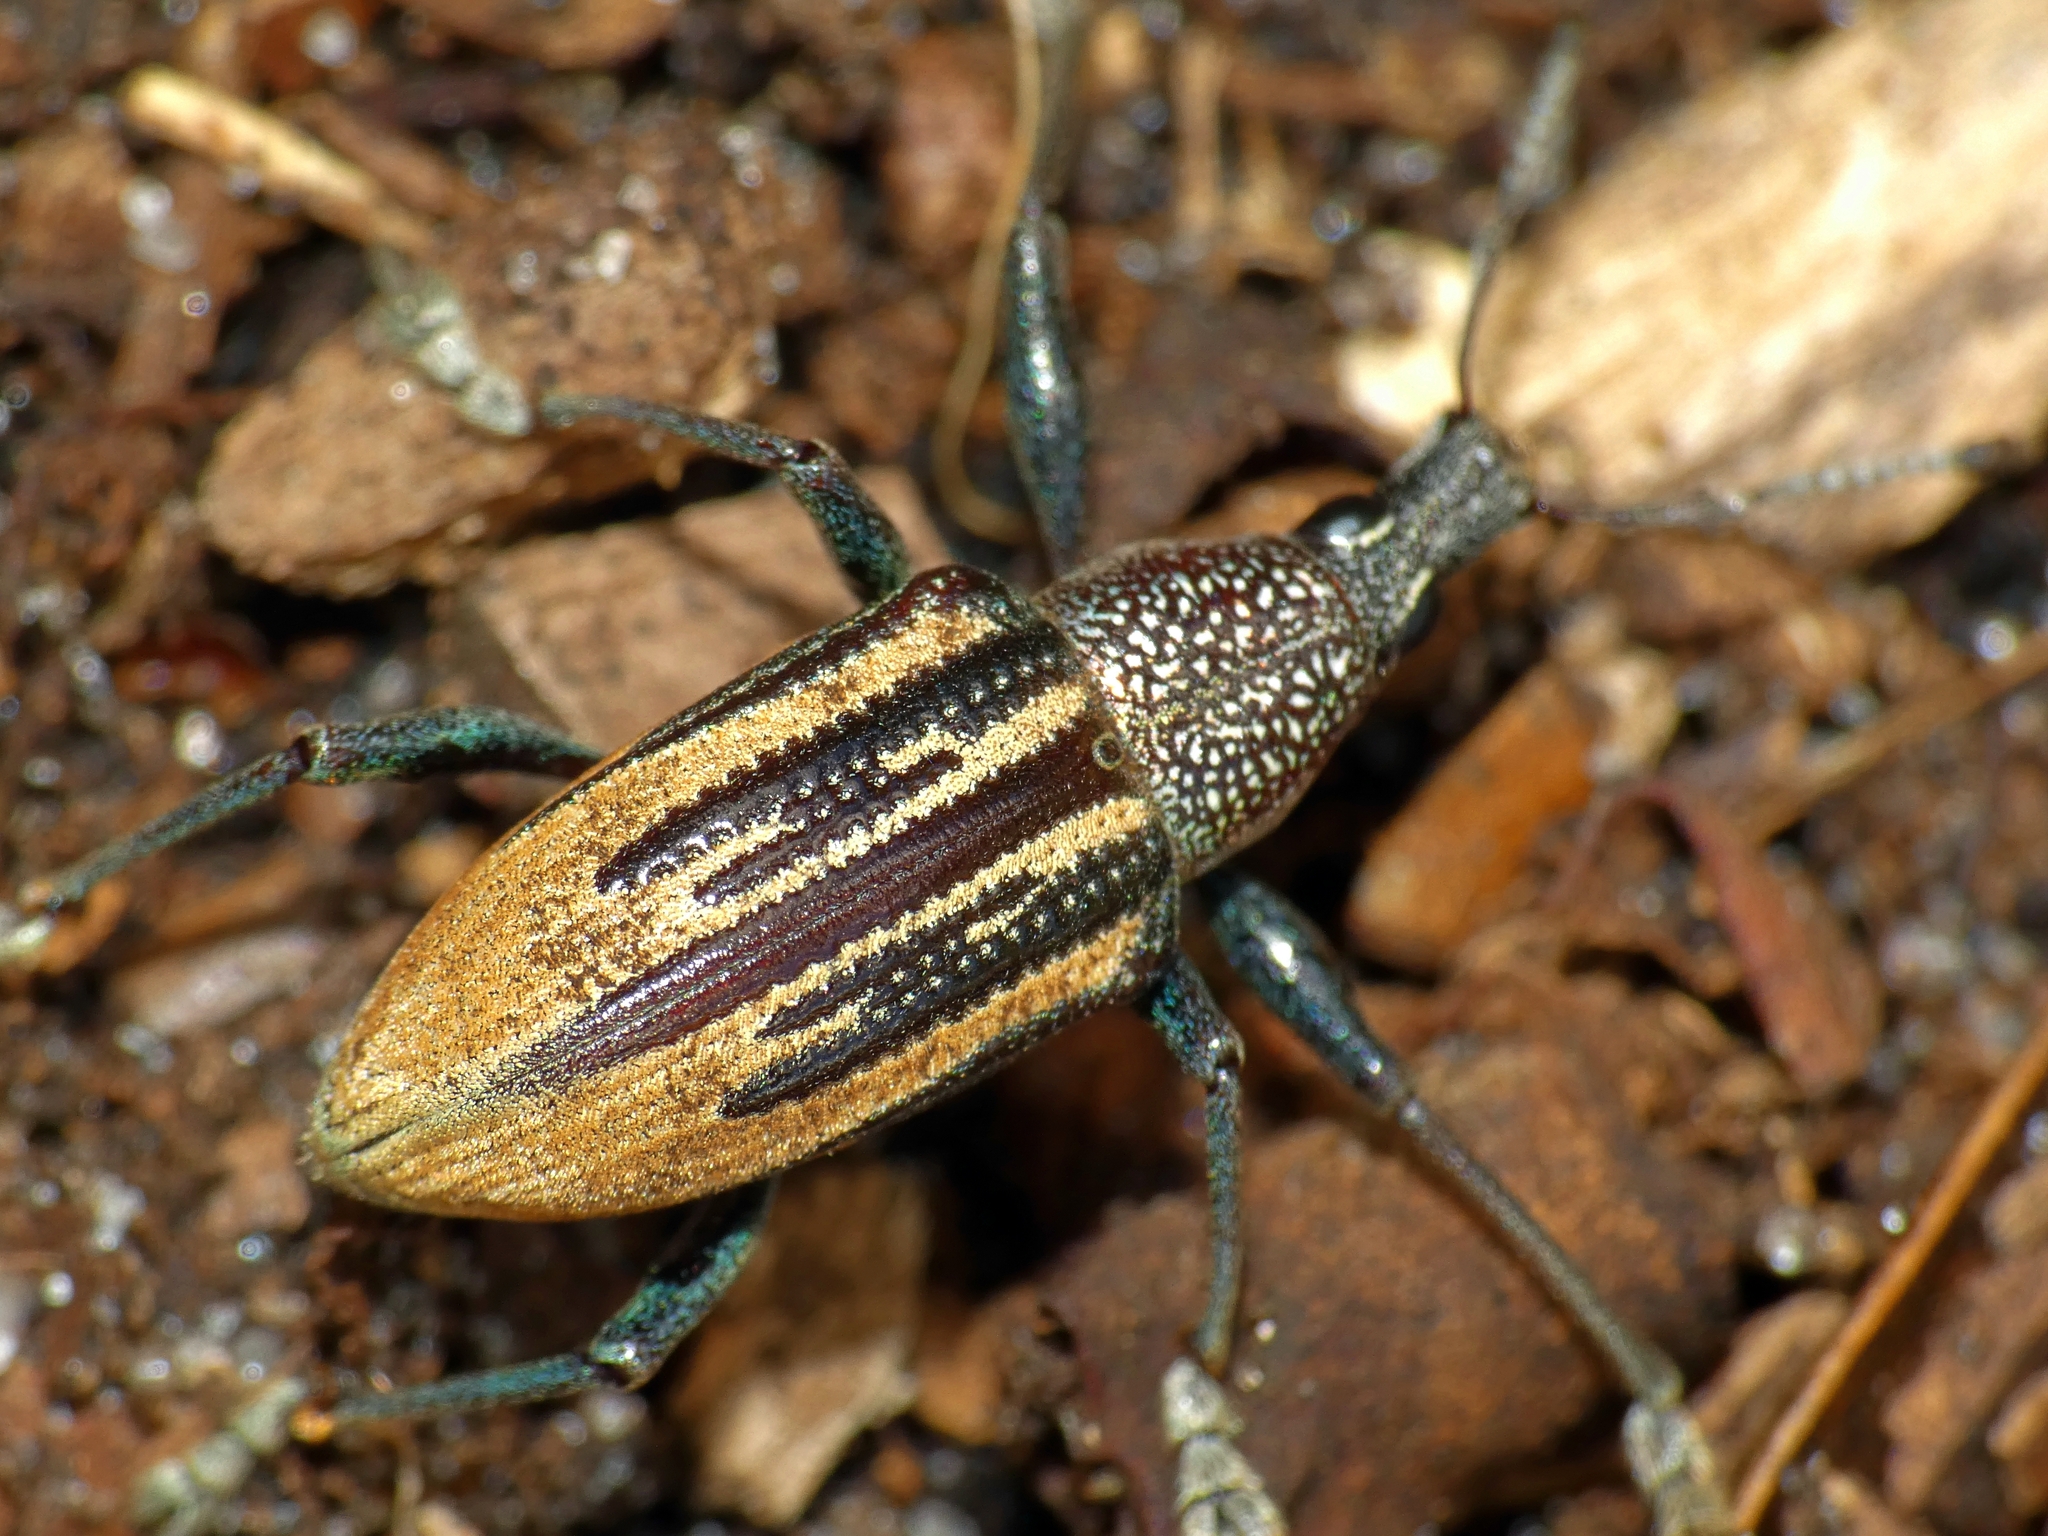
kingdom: Animalia
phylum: Arthropoda
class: Insecta
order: Coleoptera
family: Curculionidae
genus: Diaprepes
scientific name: Diaprepes abbreviatus
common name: Root weevil
